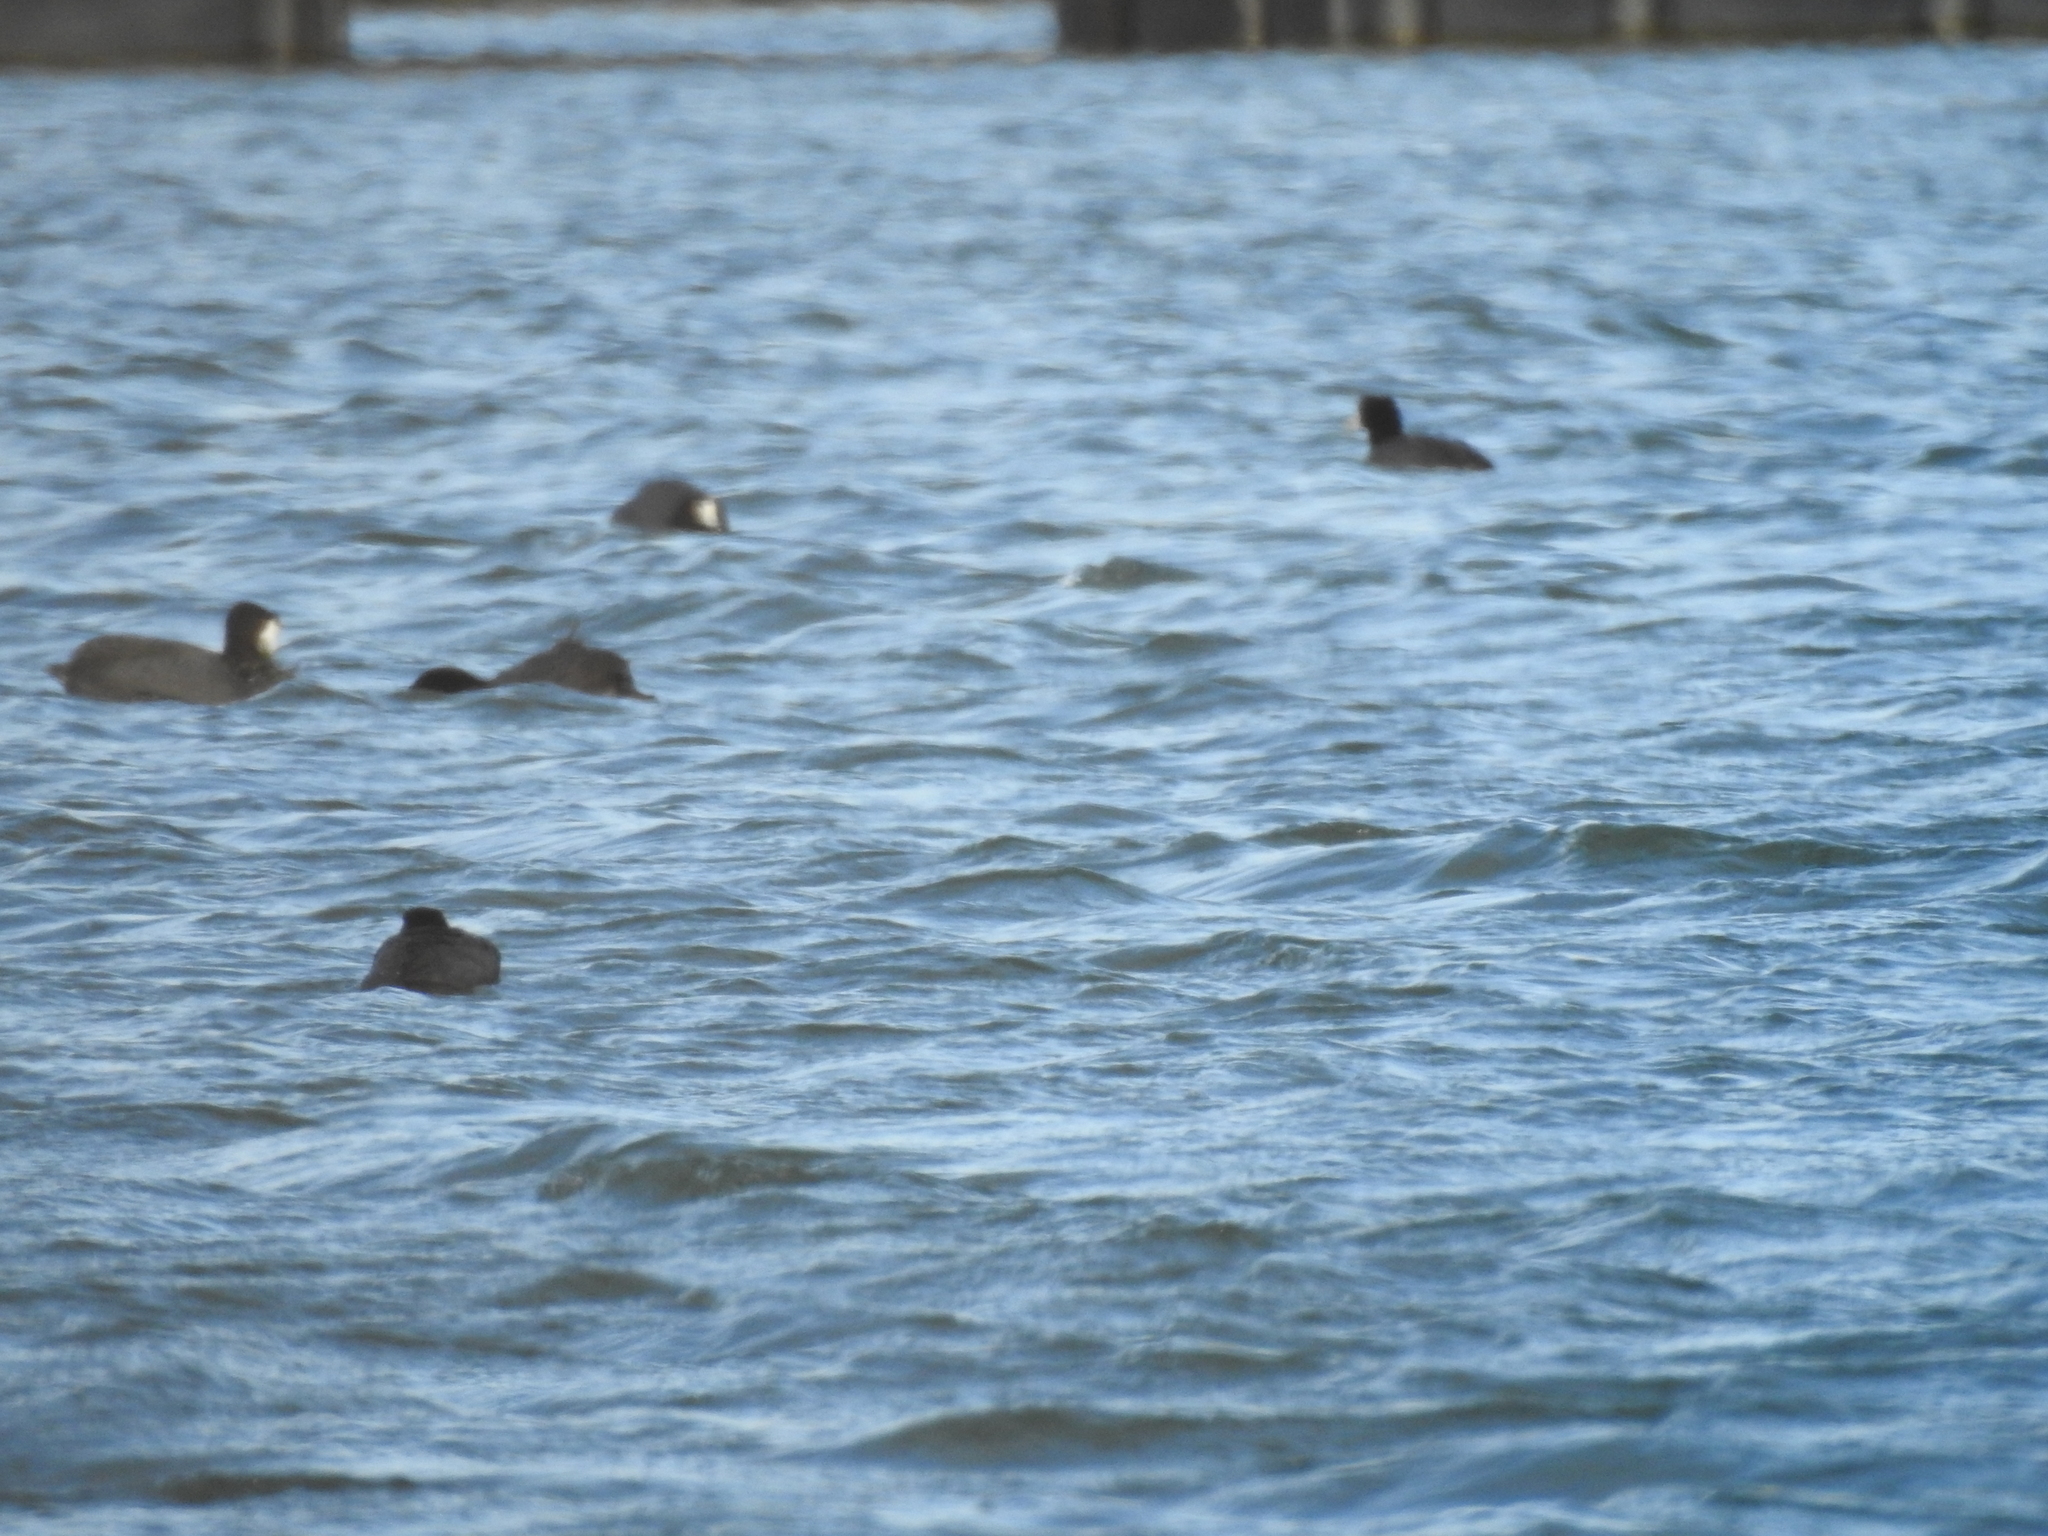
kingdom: Animalia
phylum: Chordata
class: Aves
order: Gruiformes
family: Rallidae
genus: Fulica
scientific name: Fulica americana
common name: American coot
